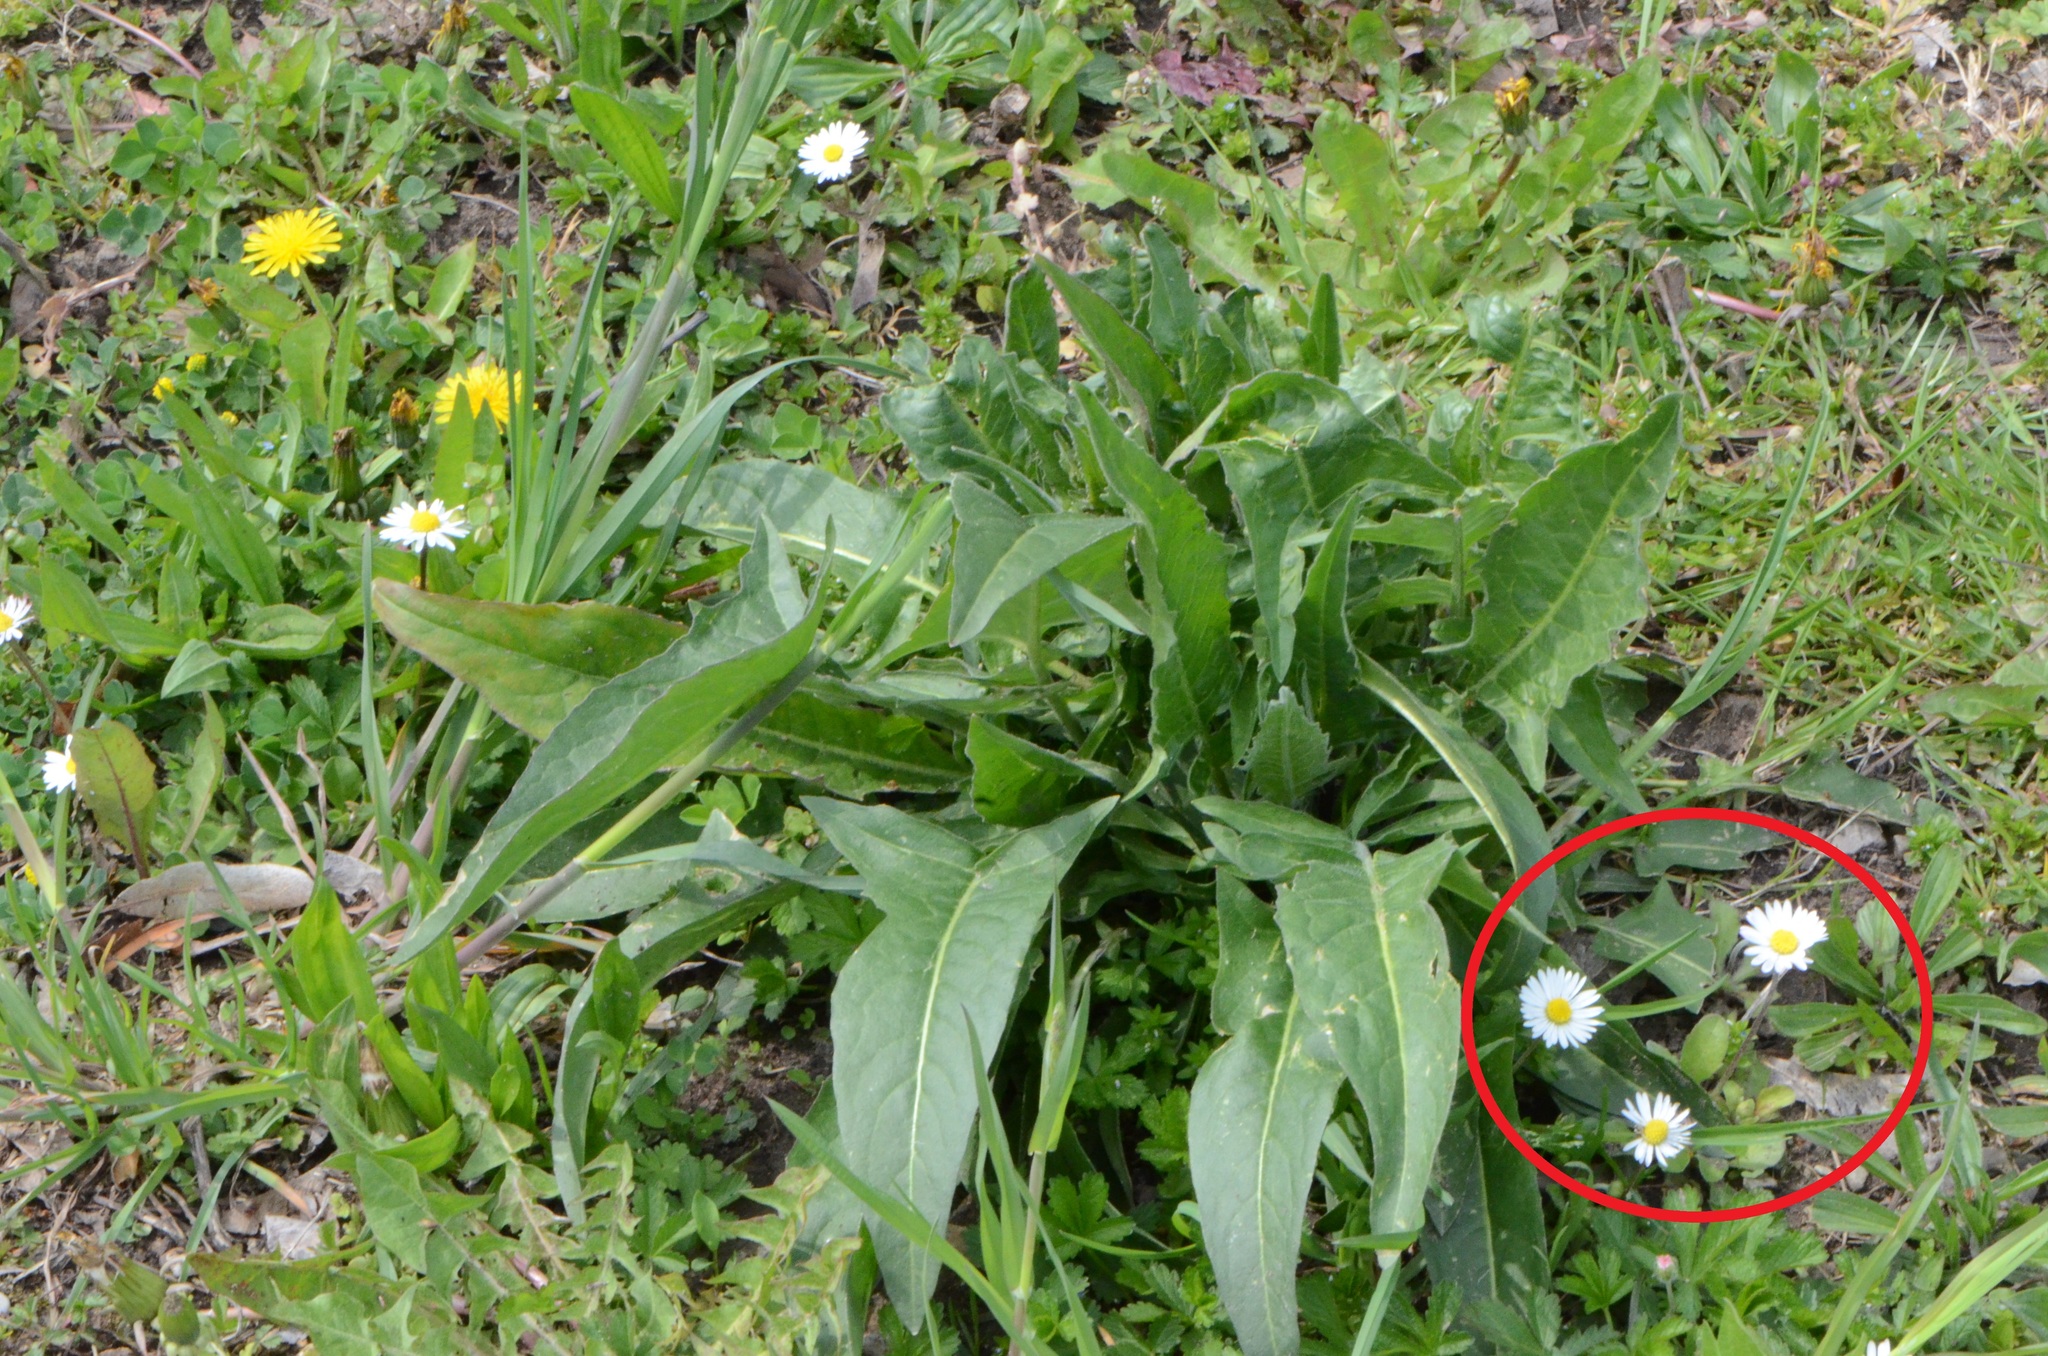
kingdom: Plantae
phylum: Tracheophyta
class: Magnoliopsida
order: Asterales
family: Asteraceae
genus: Bellis
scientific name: Bellis perennis
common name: Lawndaisy
